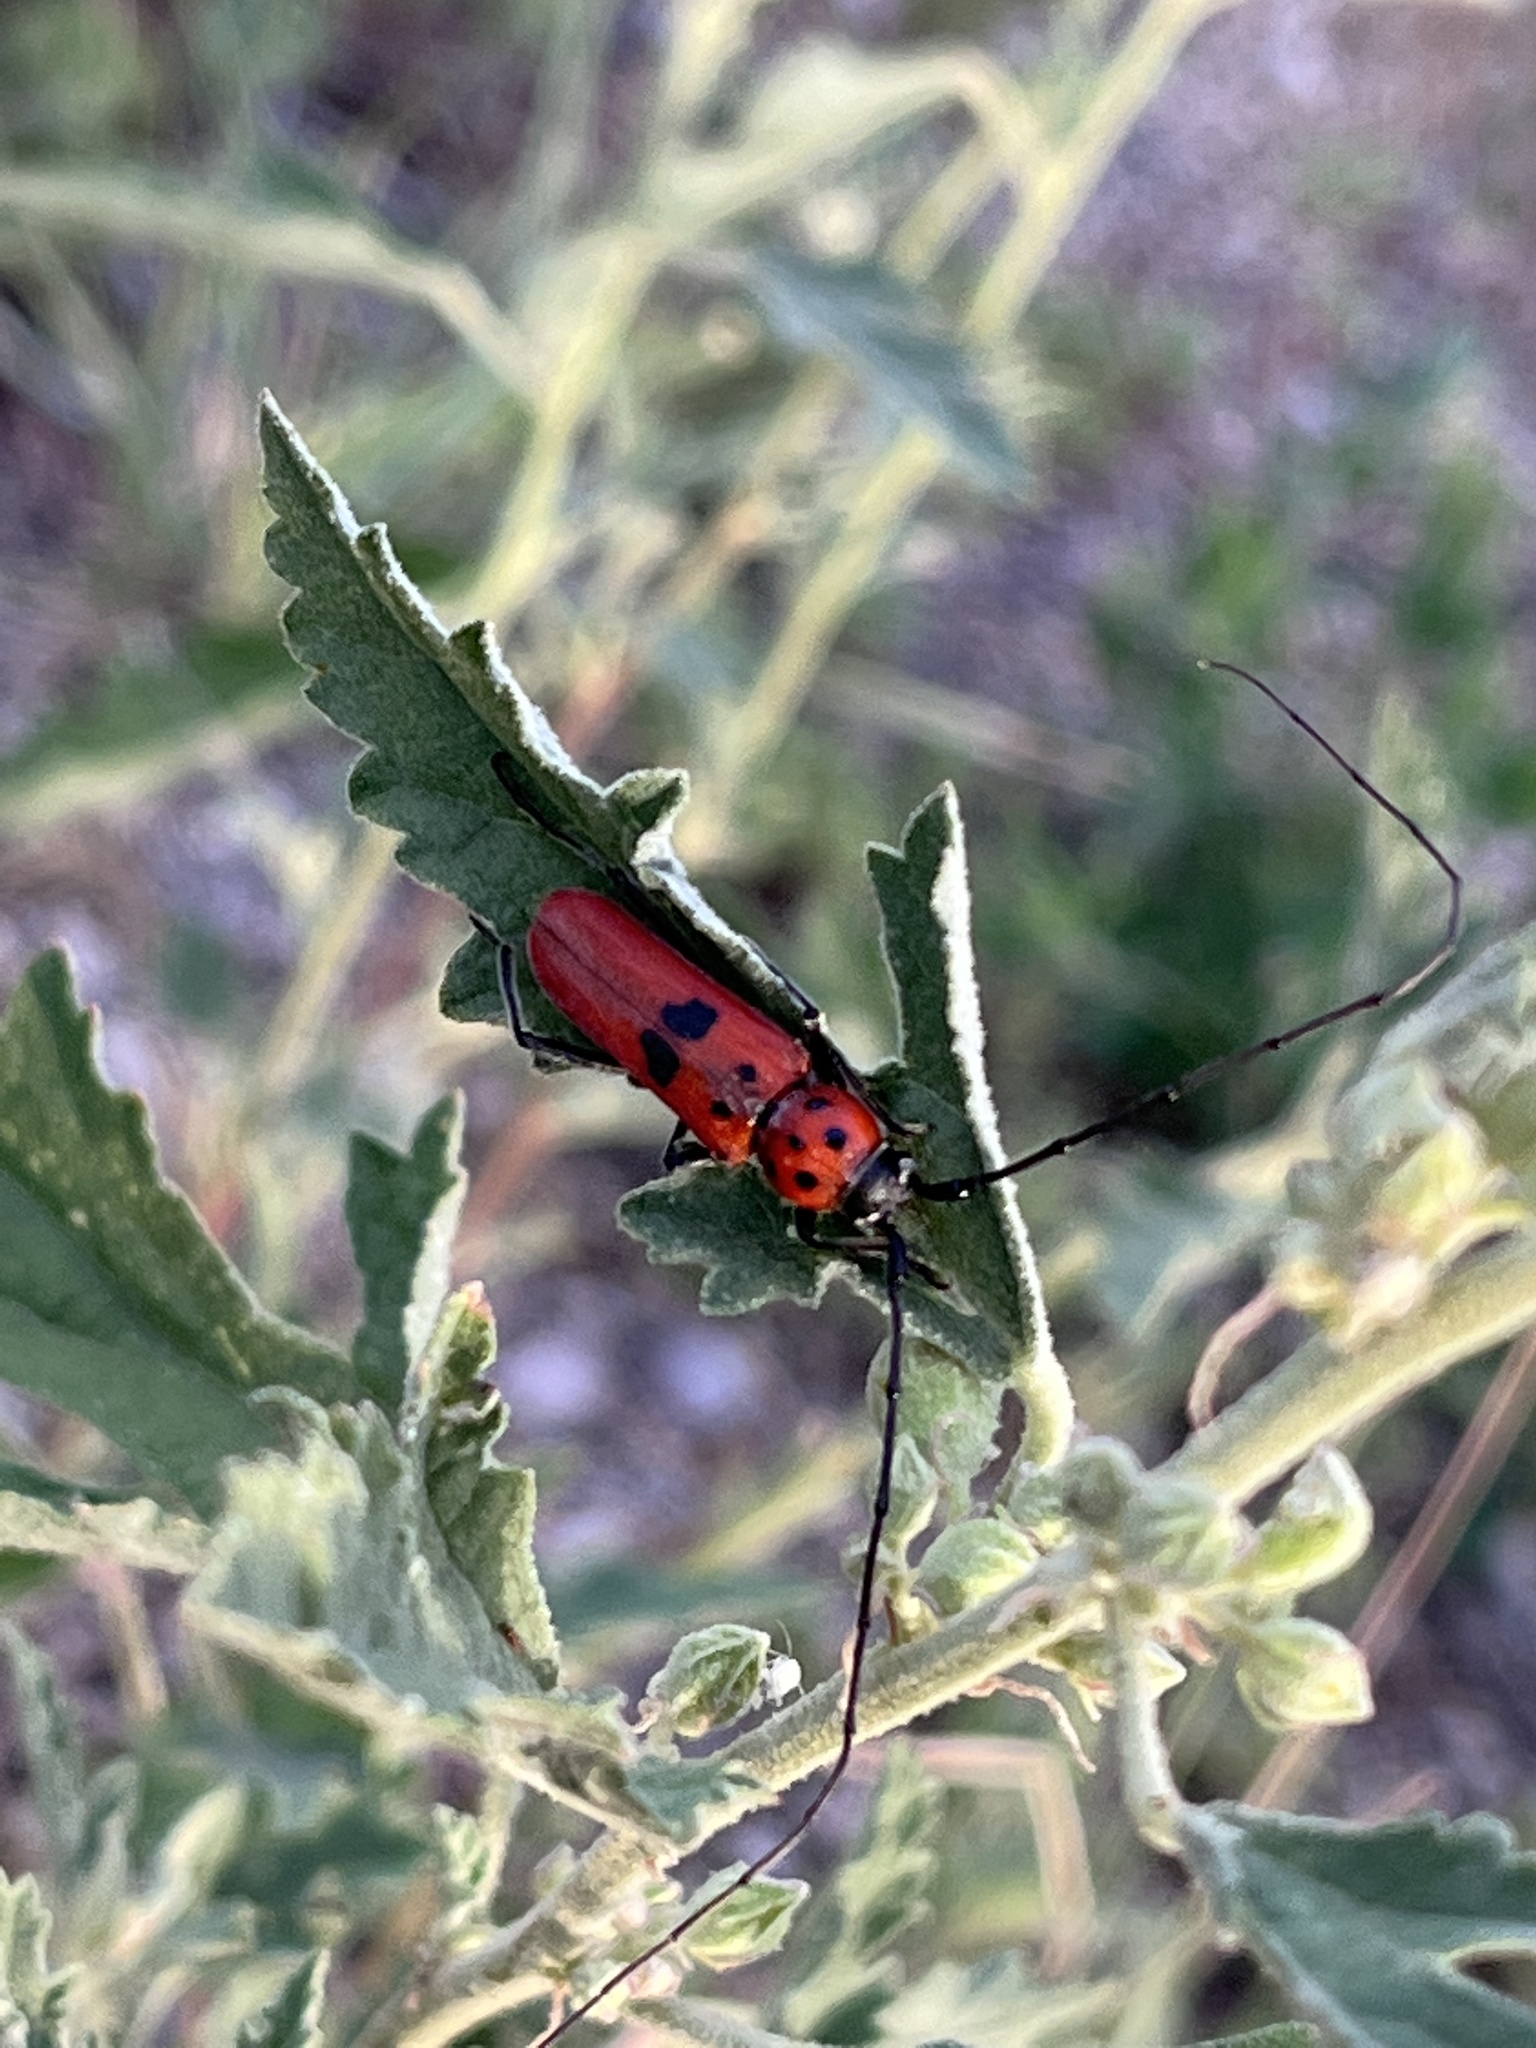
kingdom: Animalia
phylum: Arthropoda
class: Insecta
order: Coleoptera
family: Cerambycidae
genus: Tylosis
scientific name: Tylosis maculatus
